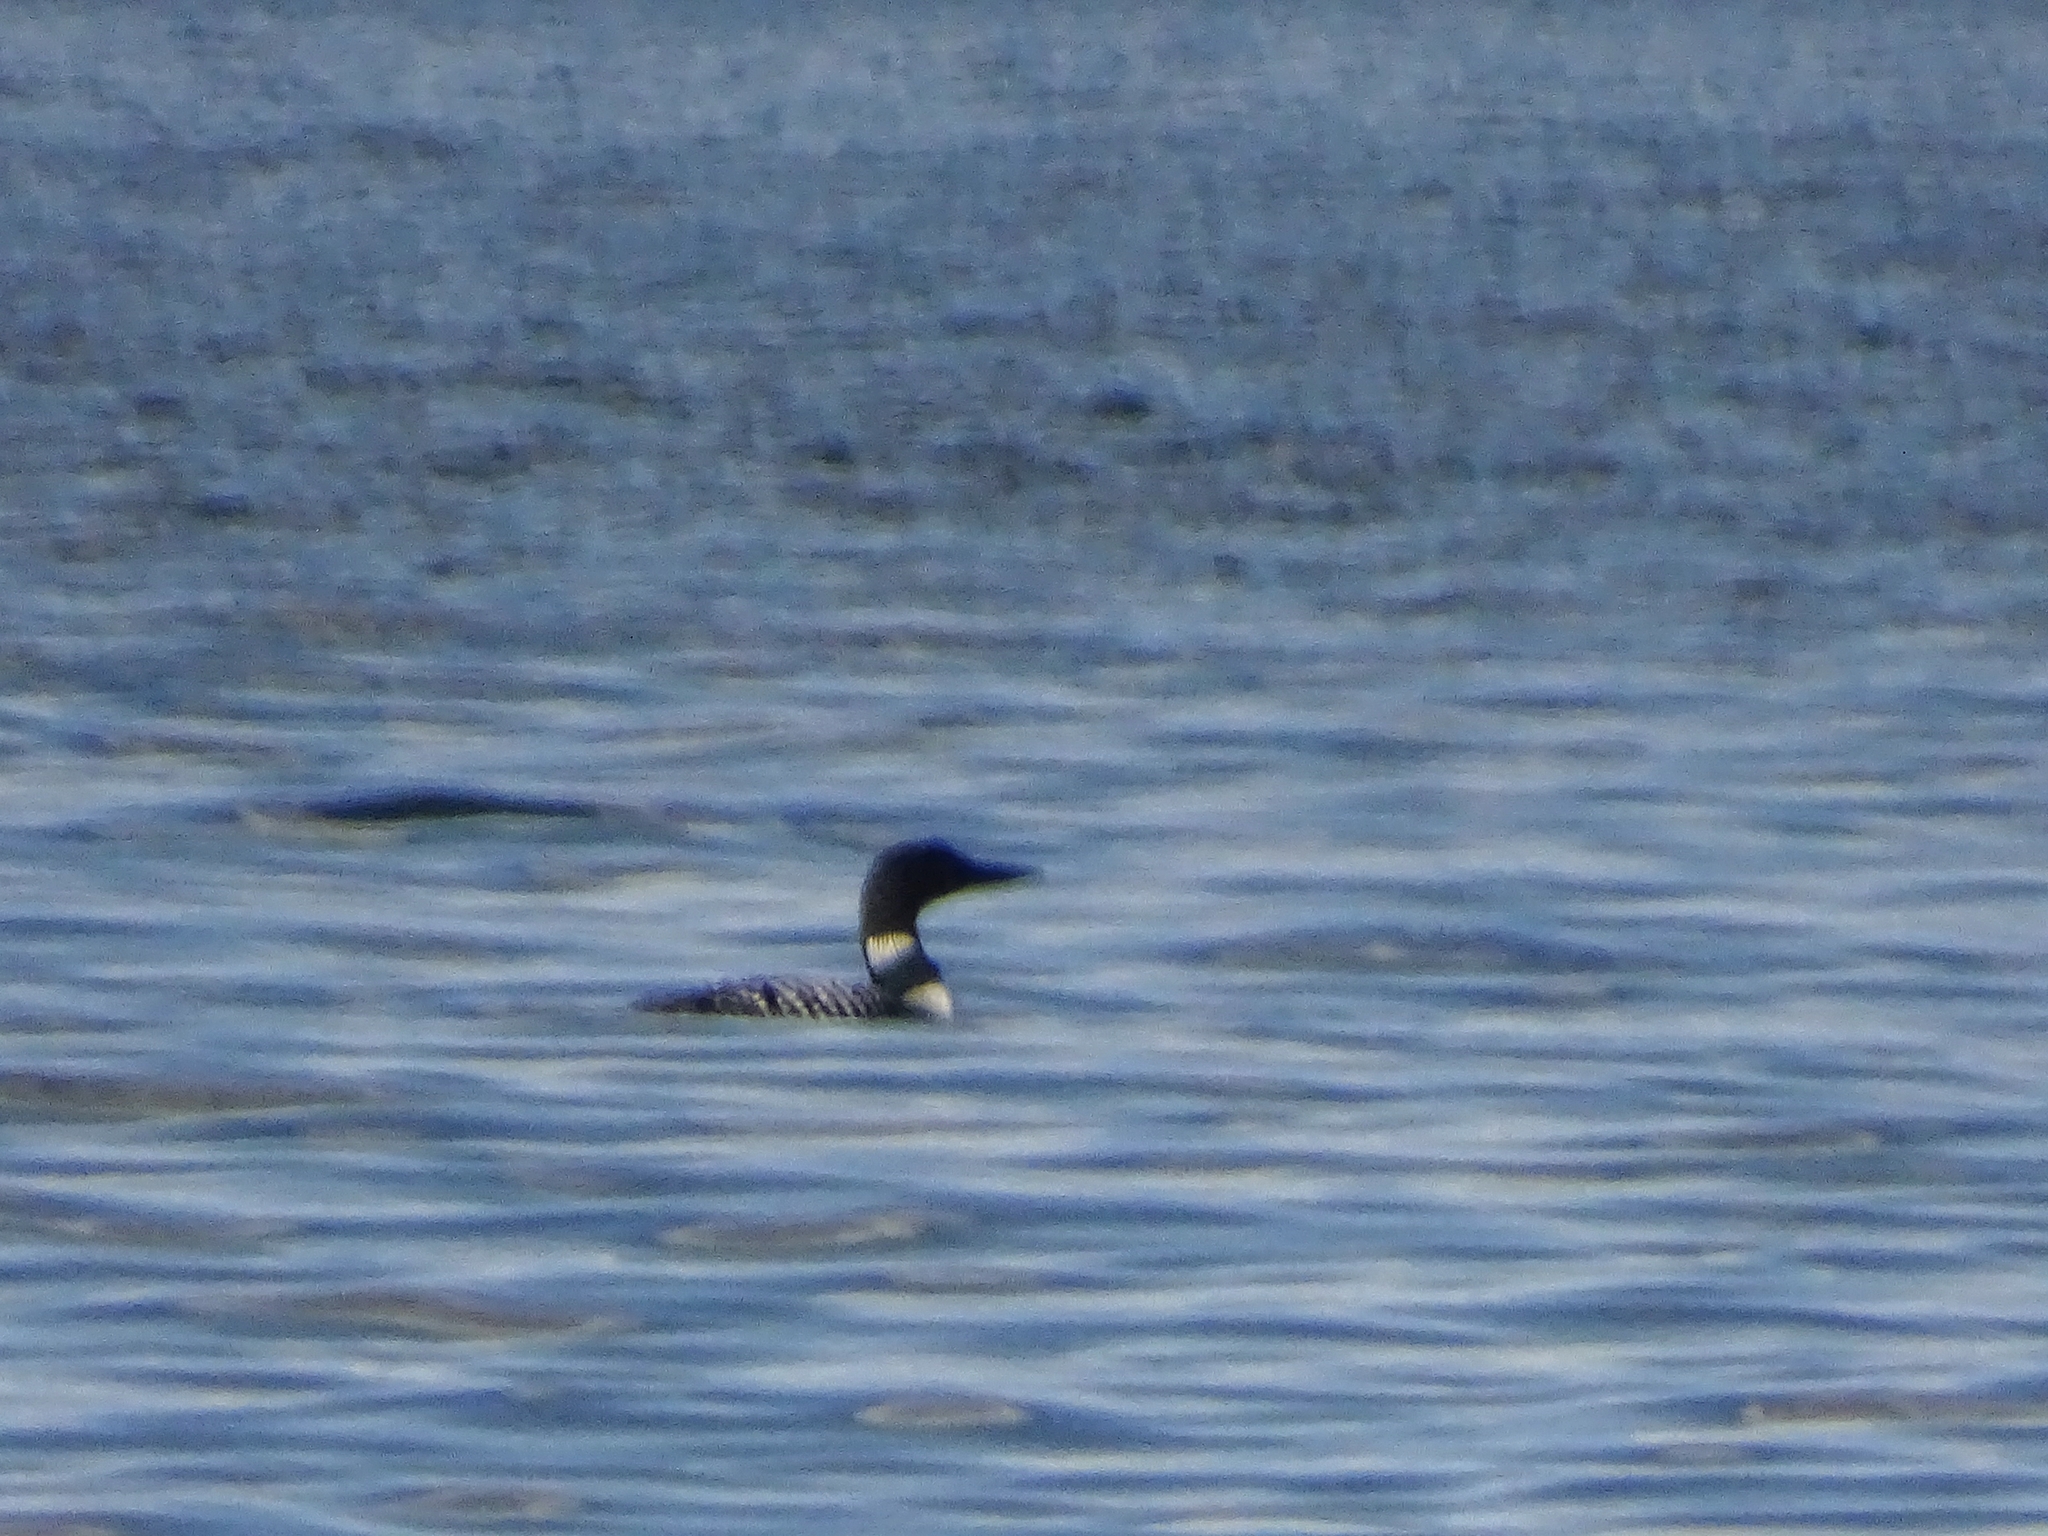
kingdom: Animalia
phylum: Chordata
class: Aves
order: Gaviiformes
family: Gaviidae
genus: Gavia
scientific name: Gavia immer
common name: Common loon
